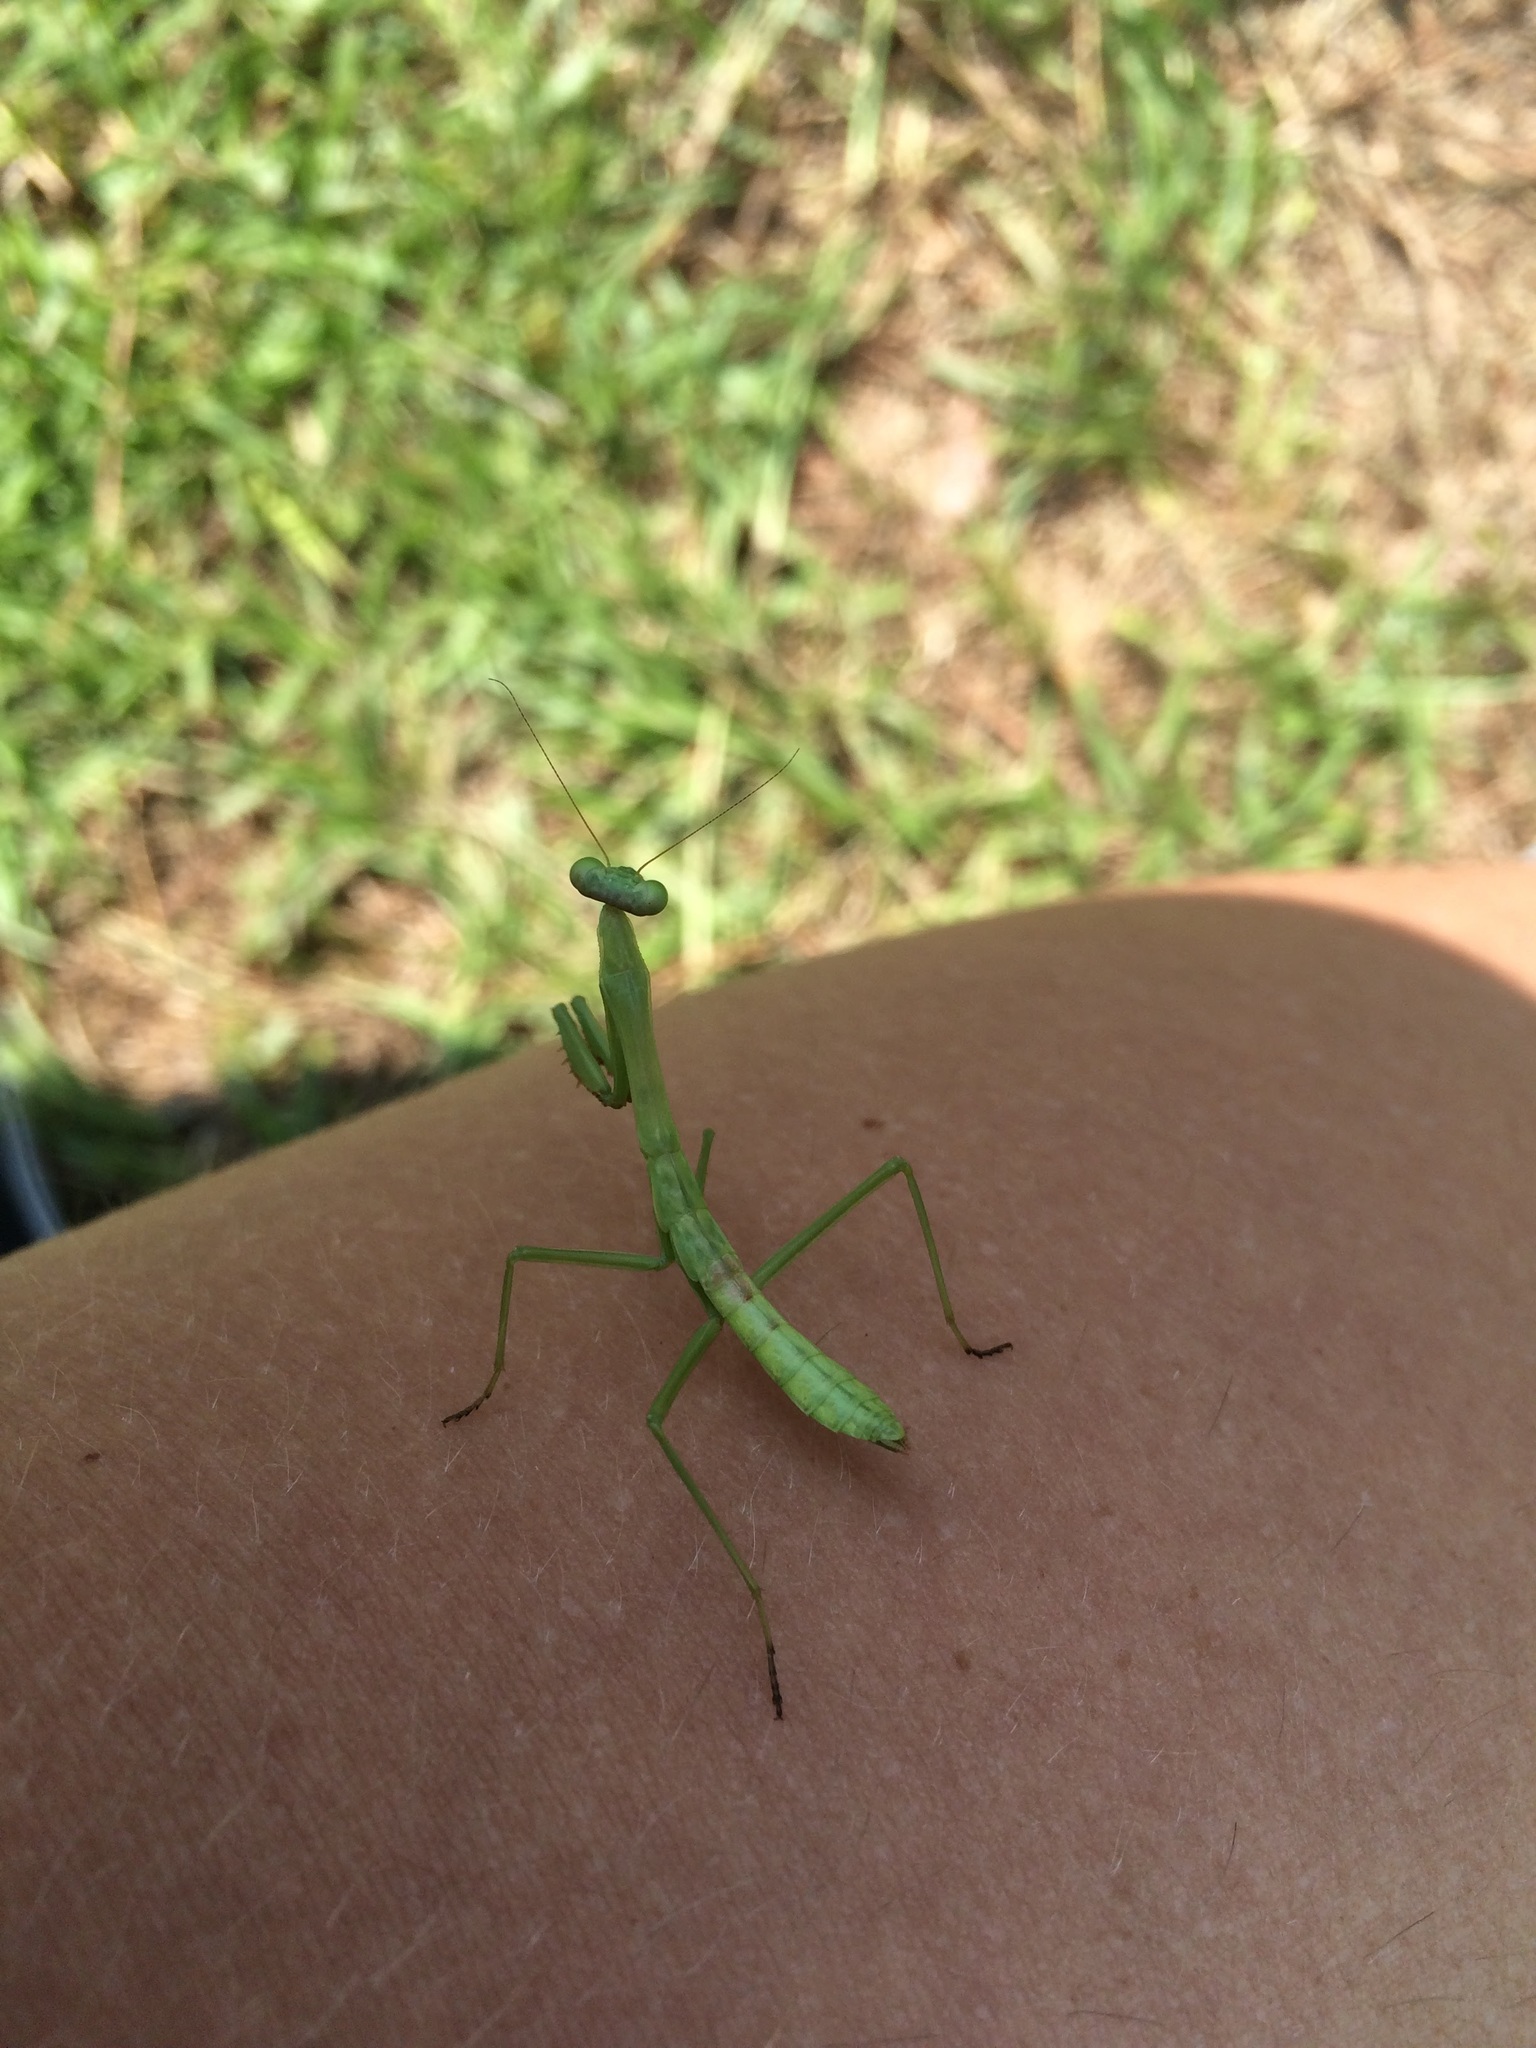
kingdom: Animalia
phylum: Arthropoda
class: Insecta
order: Mantodea
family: Mantidae
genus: Stagmomantis
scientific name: Stagmomantis carolina
